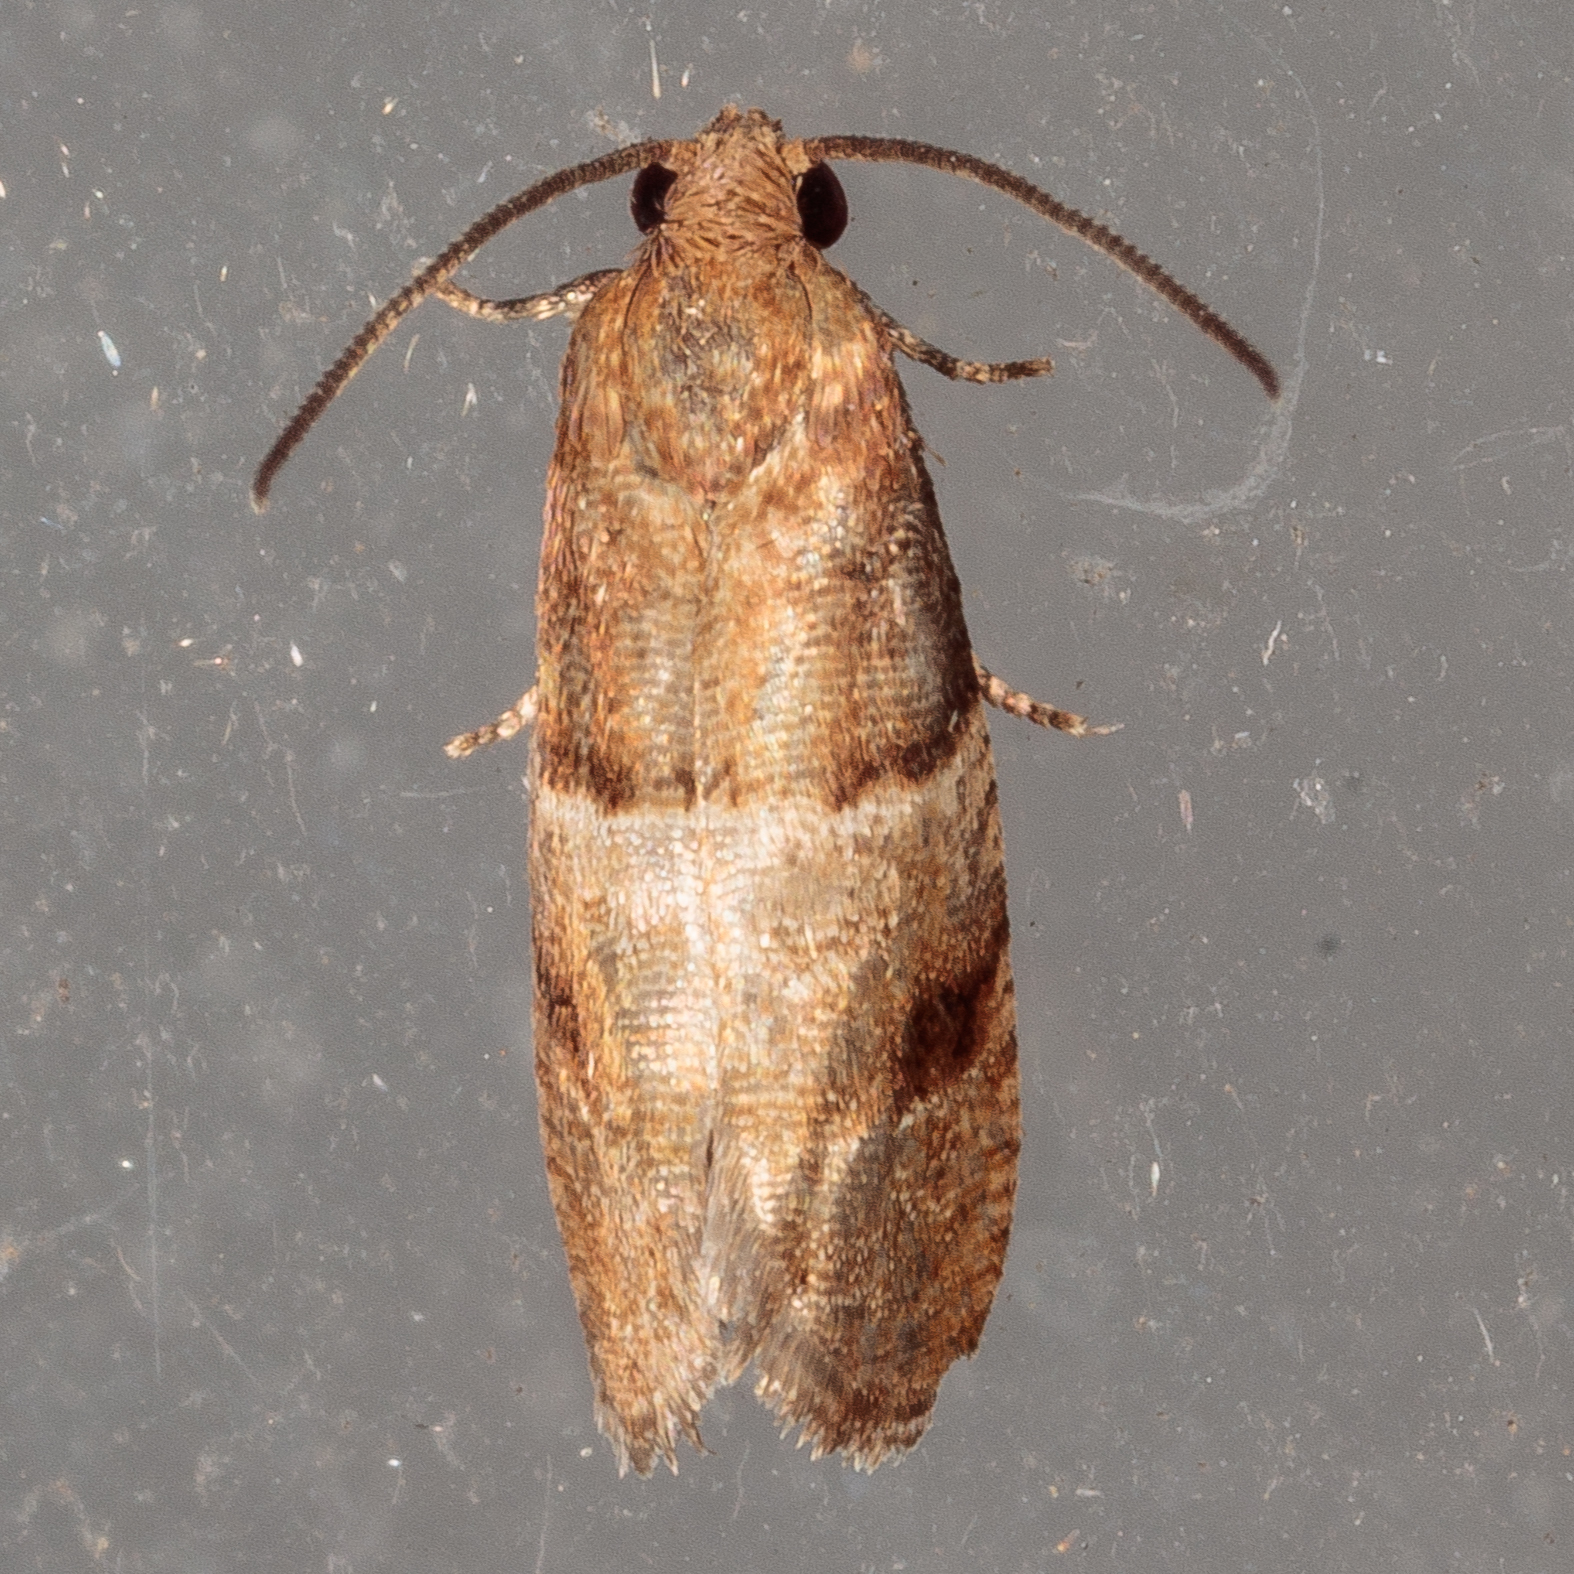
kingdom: Animalia
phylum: Arthropoda
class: Insecta
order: Lepidoptera
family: Tortricidae
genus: Larisa
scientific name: Larisa subsolana
